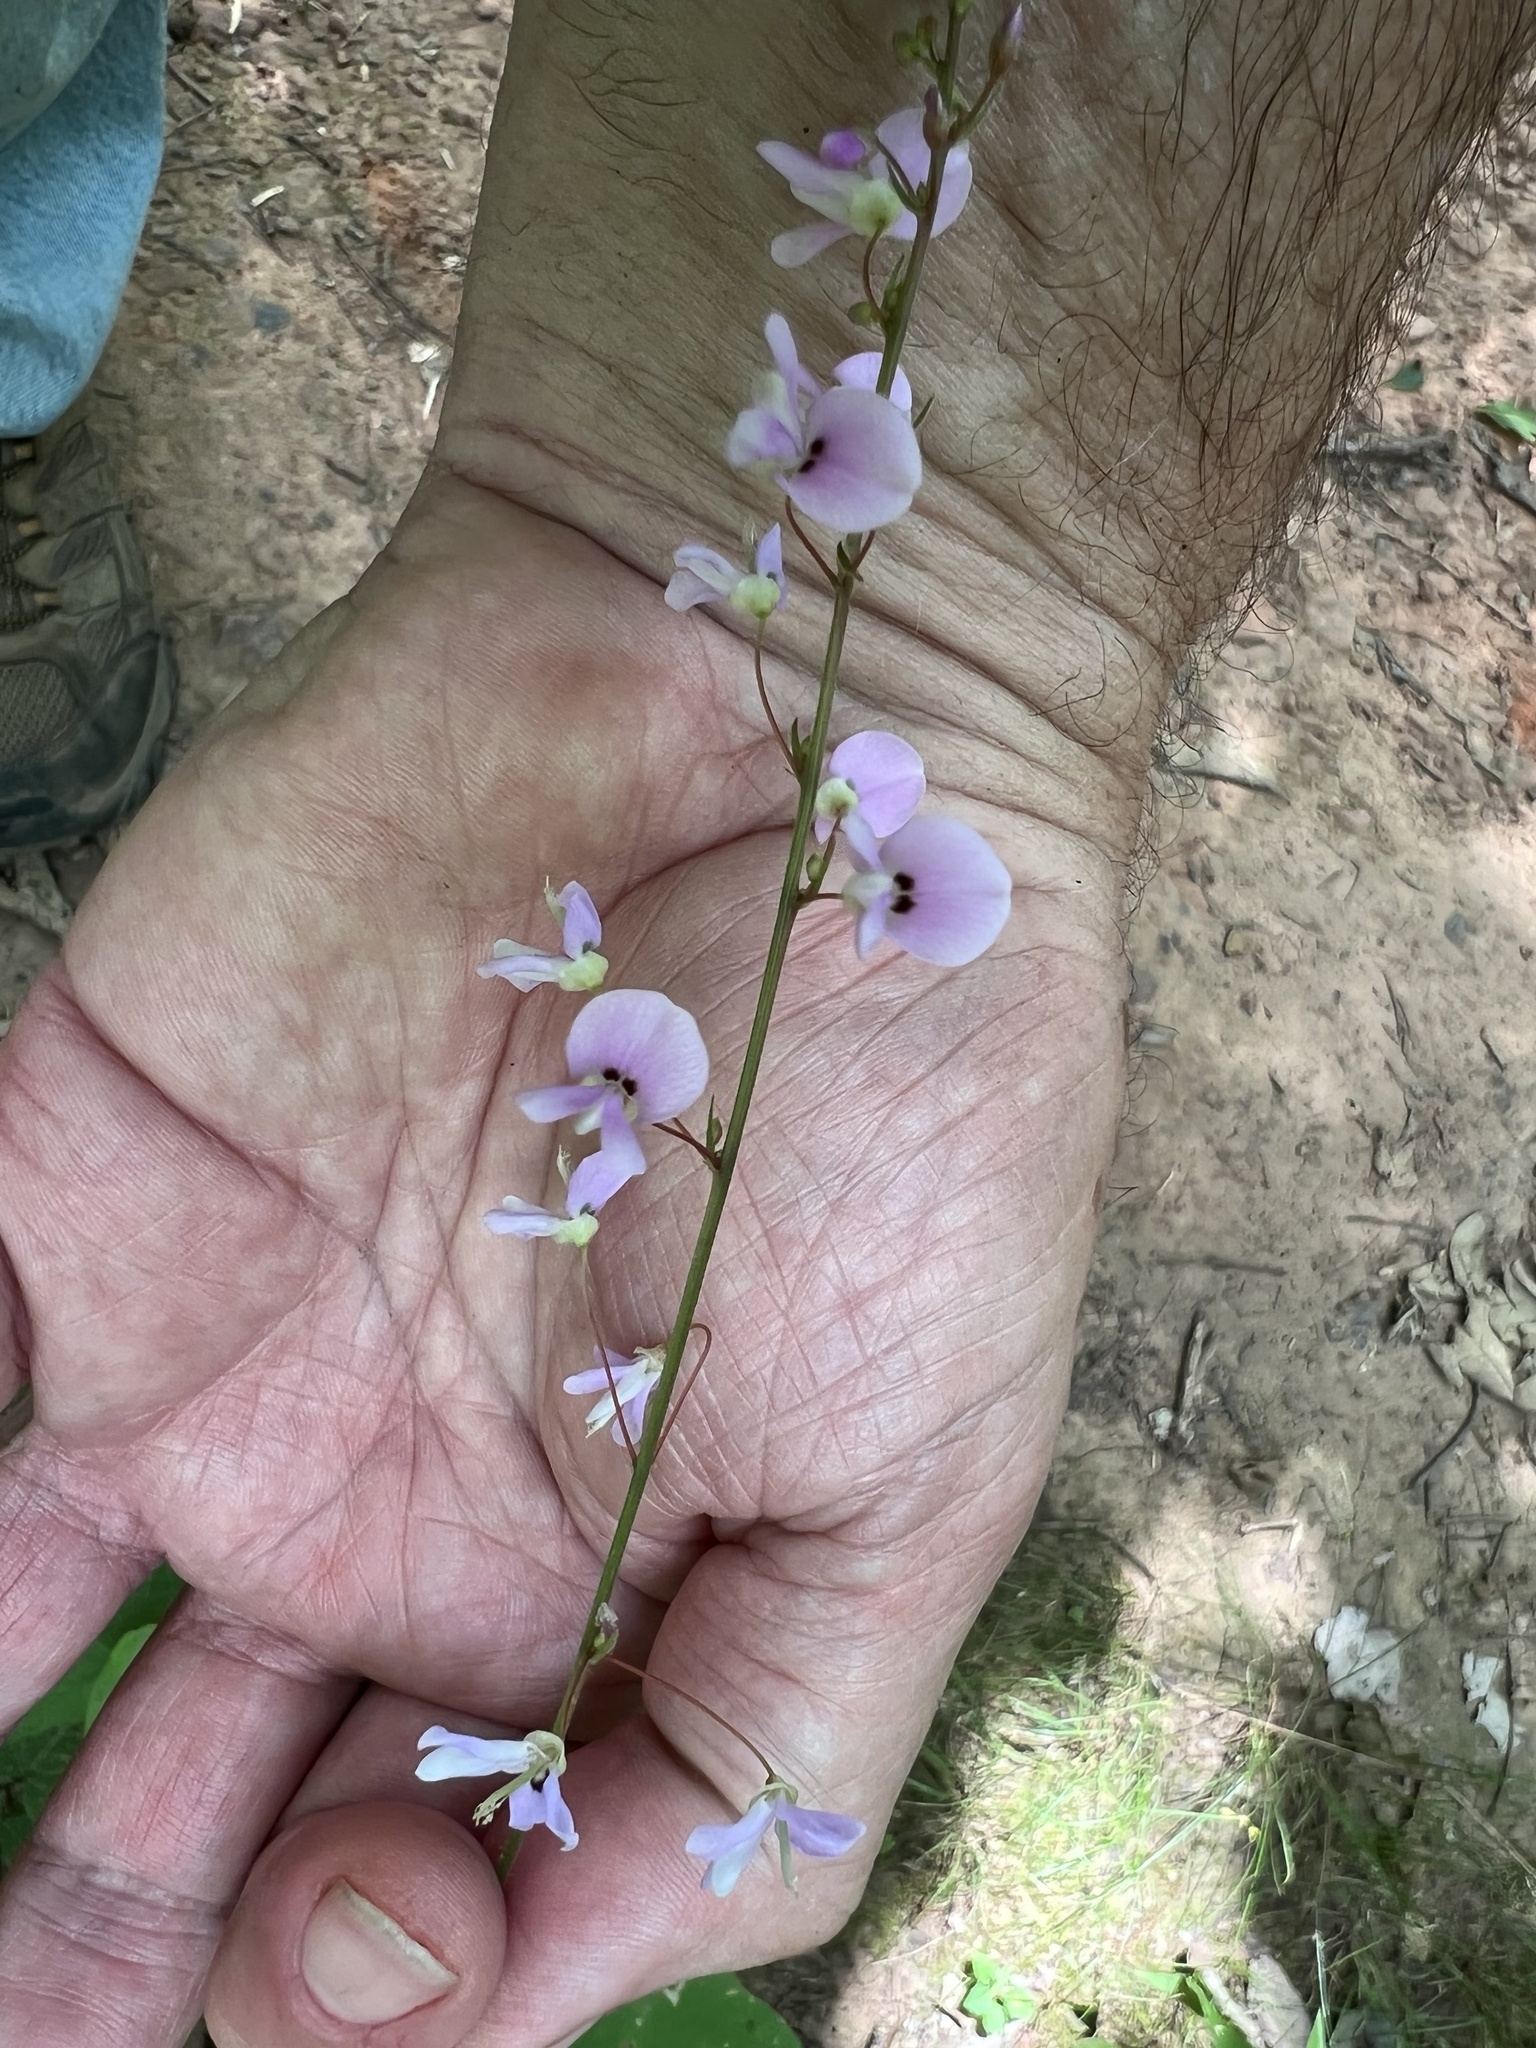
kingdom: Plantae
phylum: Tracheophyta
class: Magnoliopsida
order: Fabales
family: Fabaceae
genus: Hylodesmum
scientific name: Hylodesmum nudiflorum
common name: Bare-stemmed tick-trefoil
